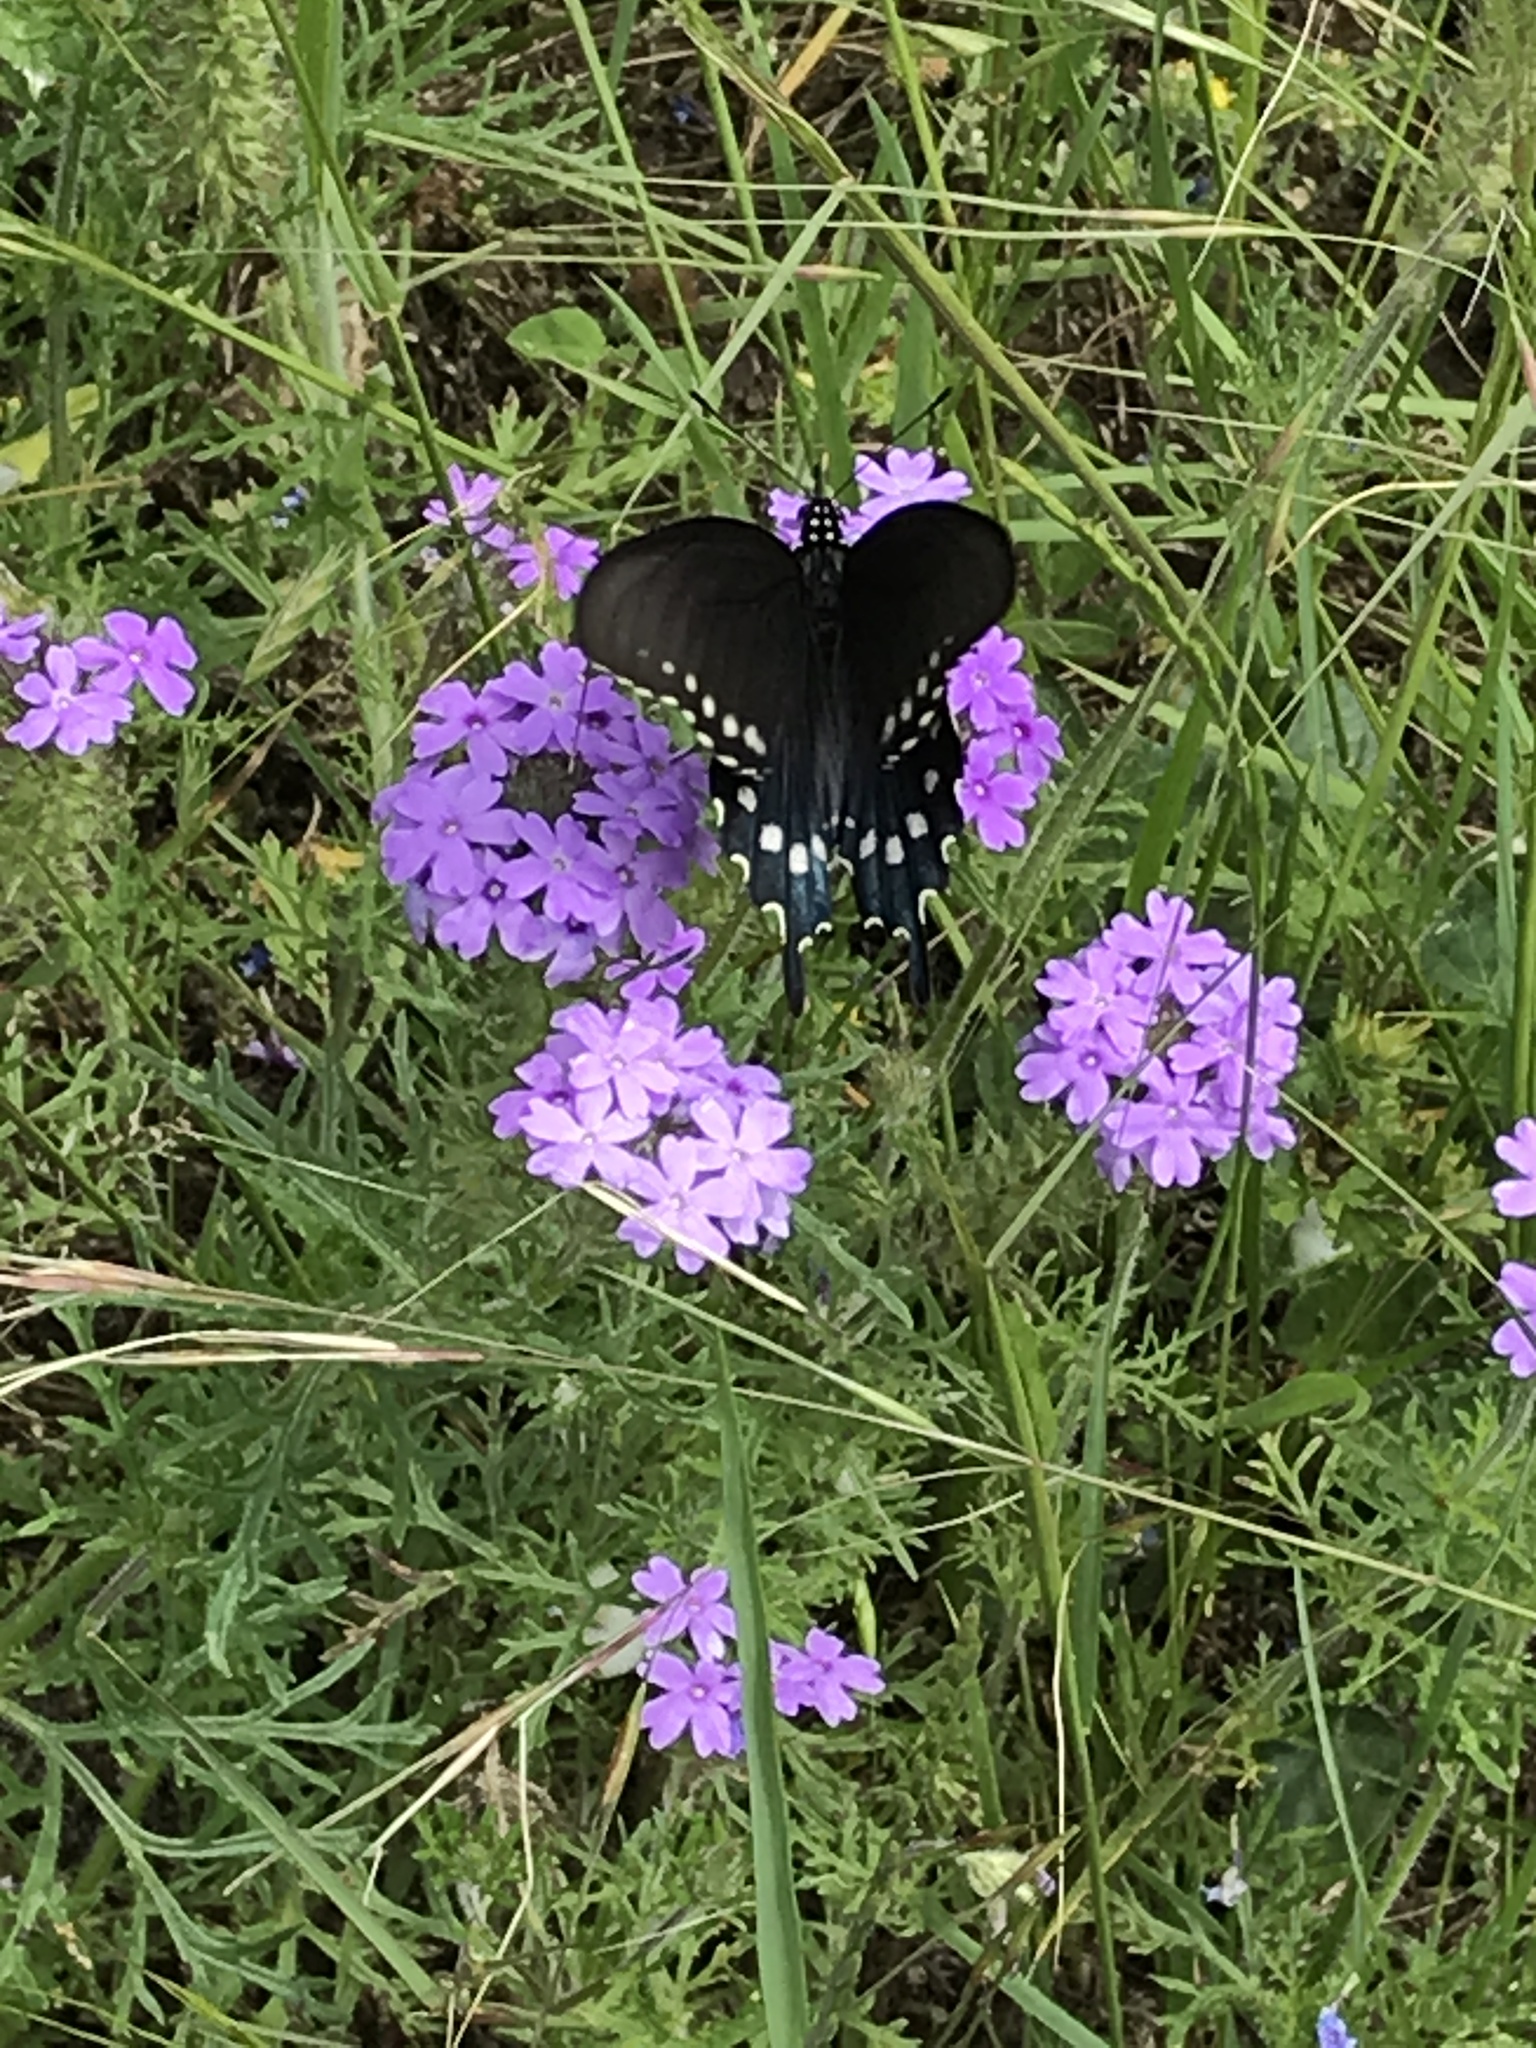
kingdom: Animalia
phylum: Arthropoda
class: Insecta
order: Lepidoptera
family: Papilionidae
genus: Battus
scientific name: Battus philenor
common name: Pipevine swallowtail
